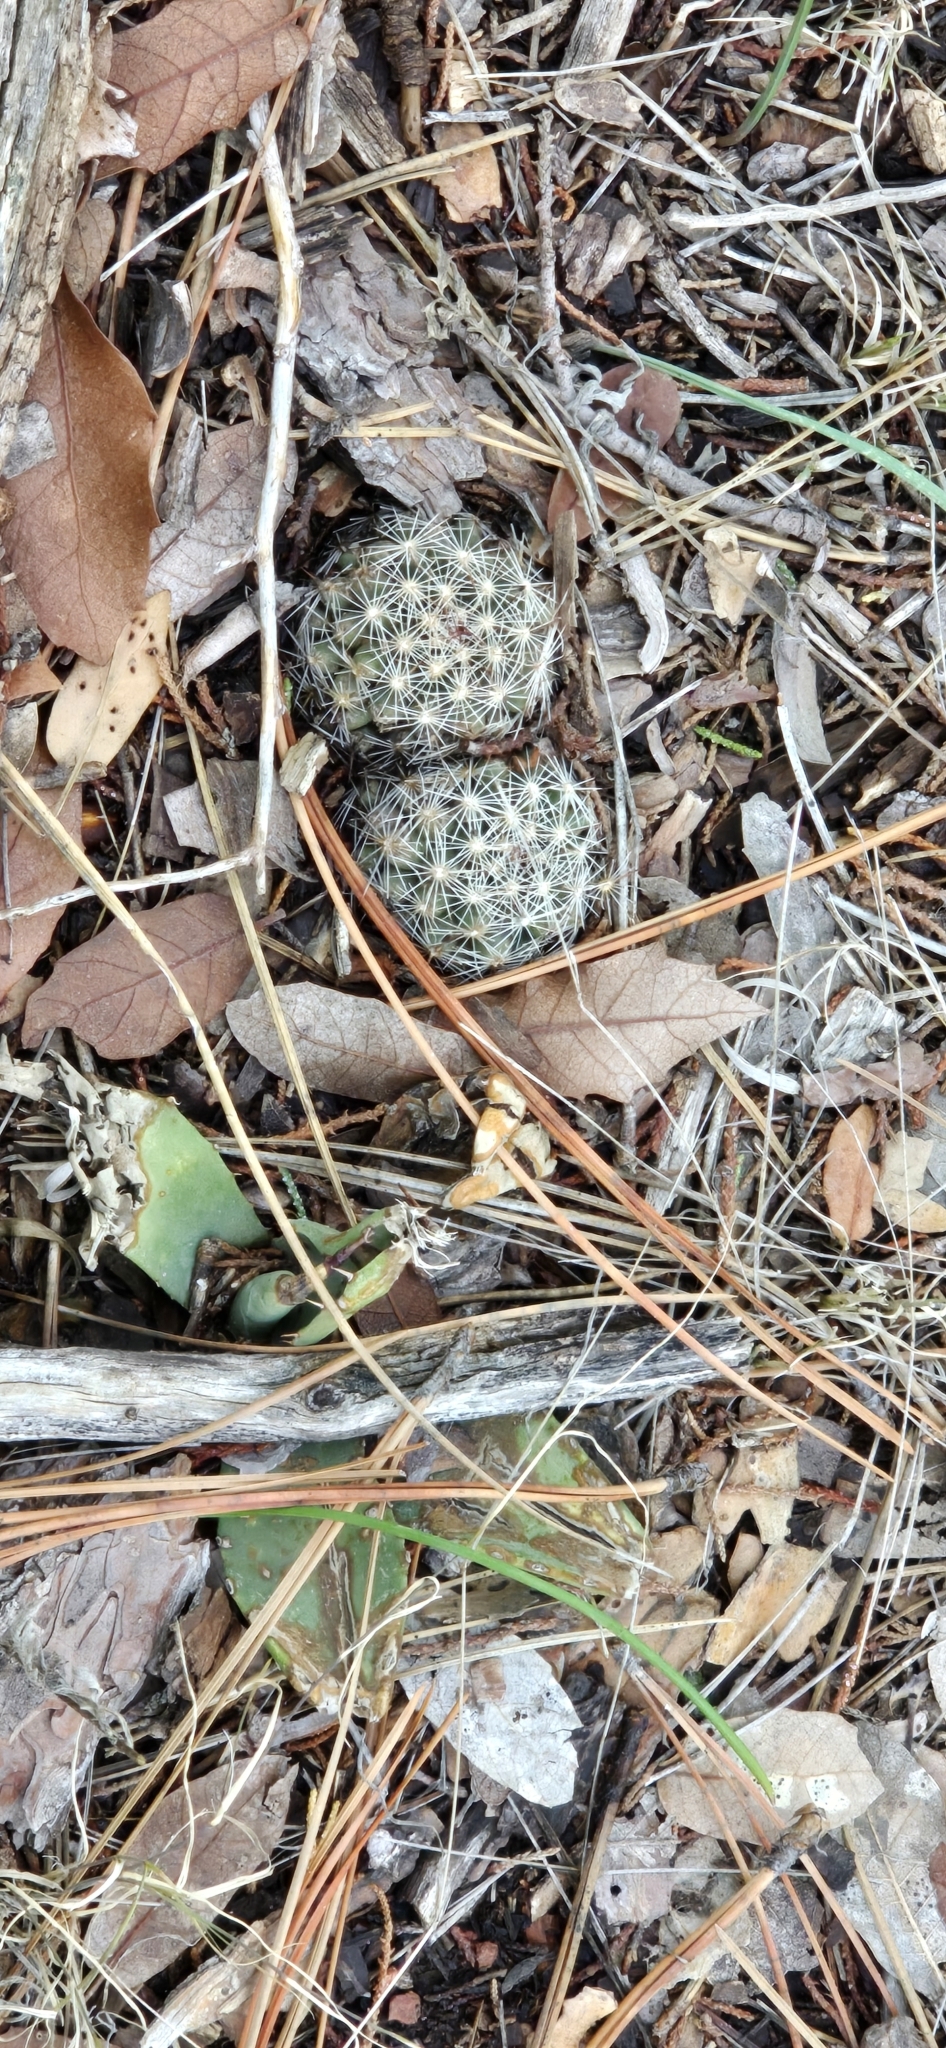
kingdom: Plantae
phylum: Tracheophyta
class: Magnoliopsida
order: Caryophyllales
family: Cactaceae
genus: Cochemiea
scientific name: Cochemiea barbata
